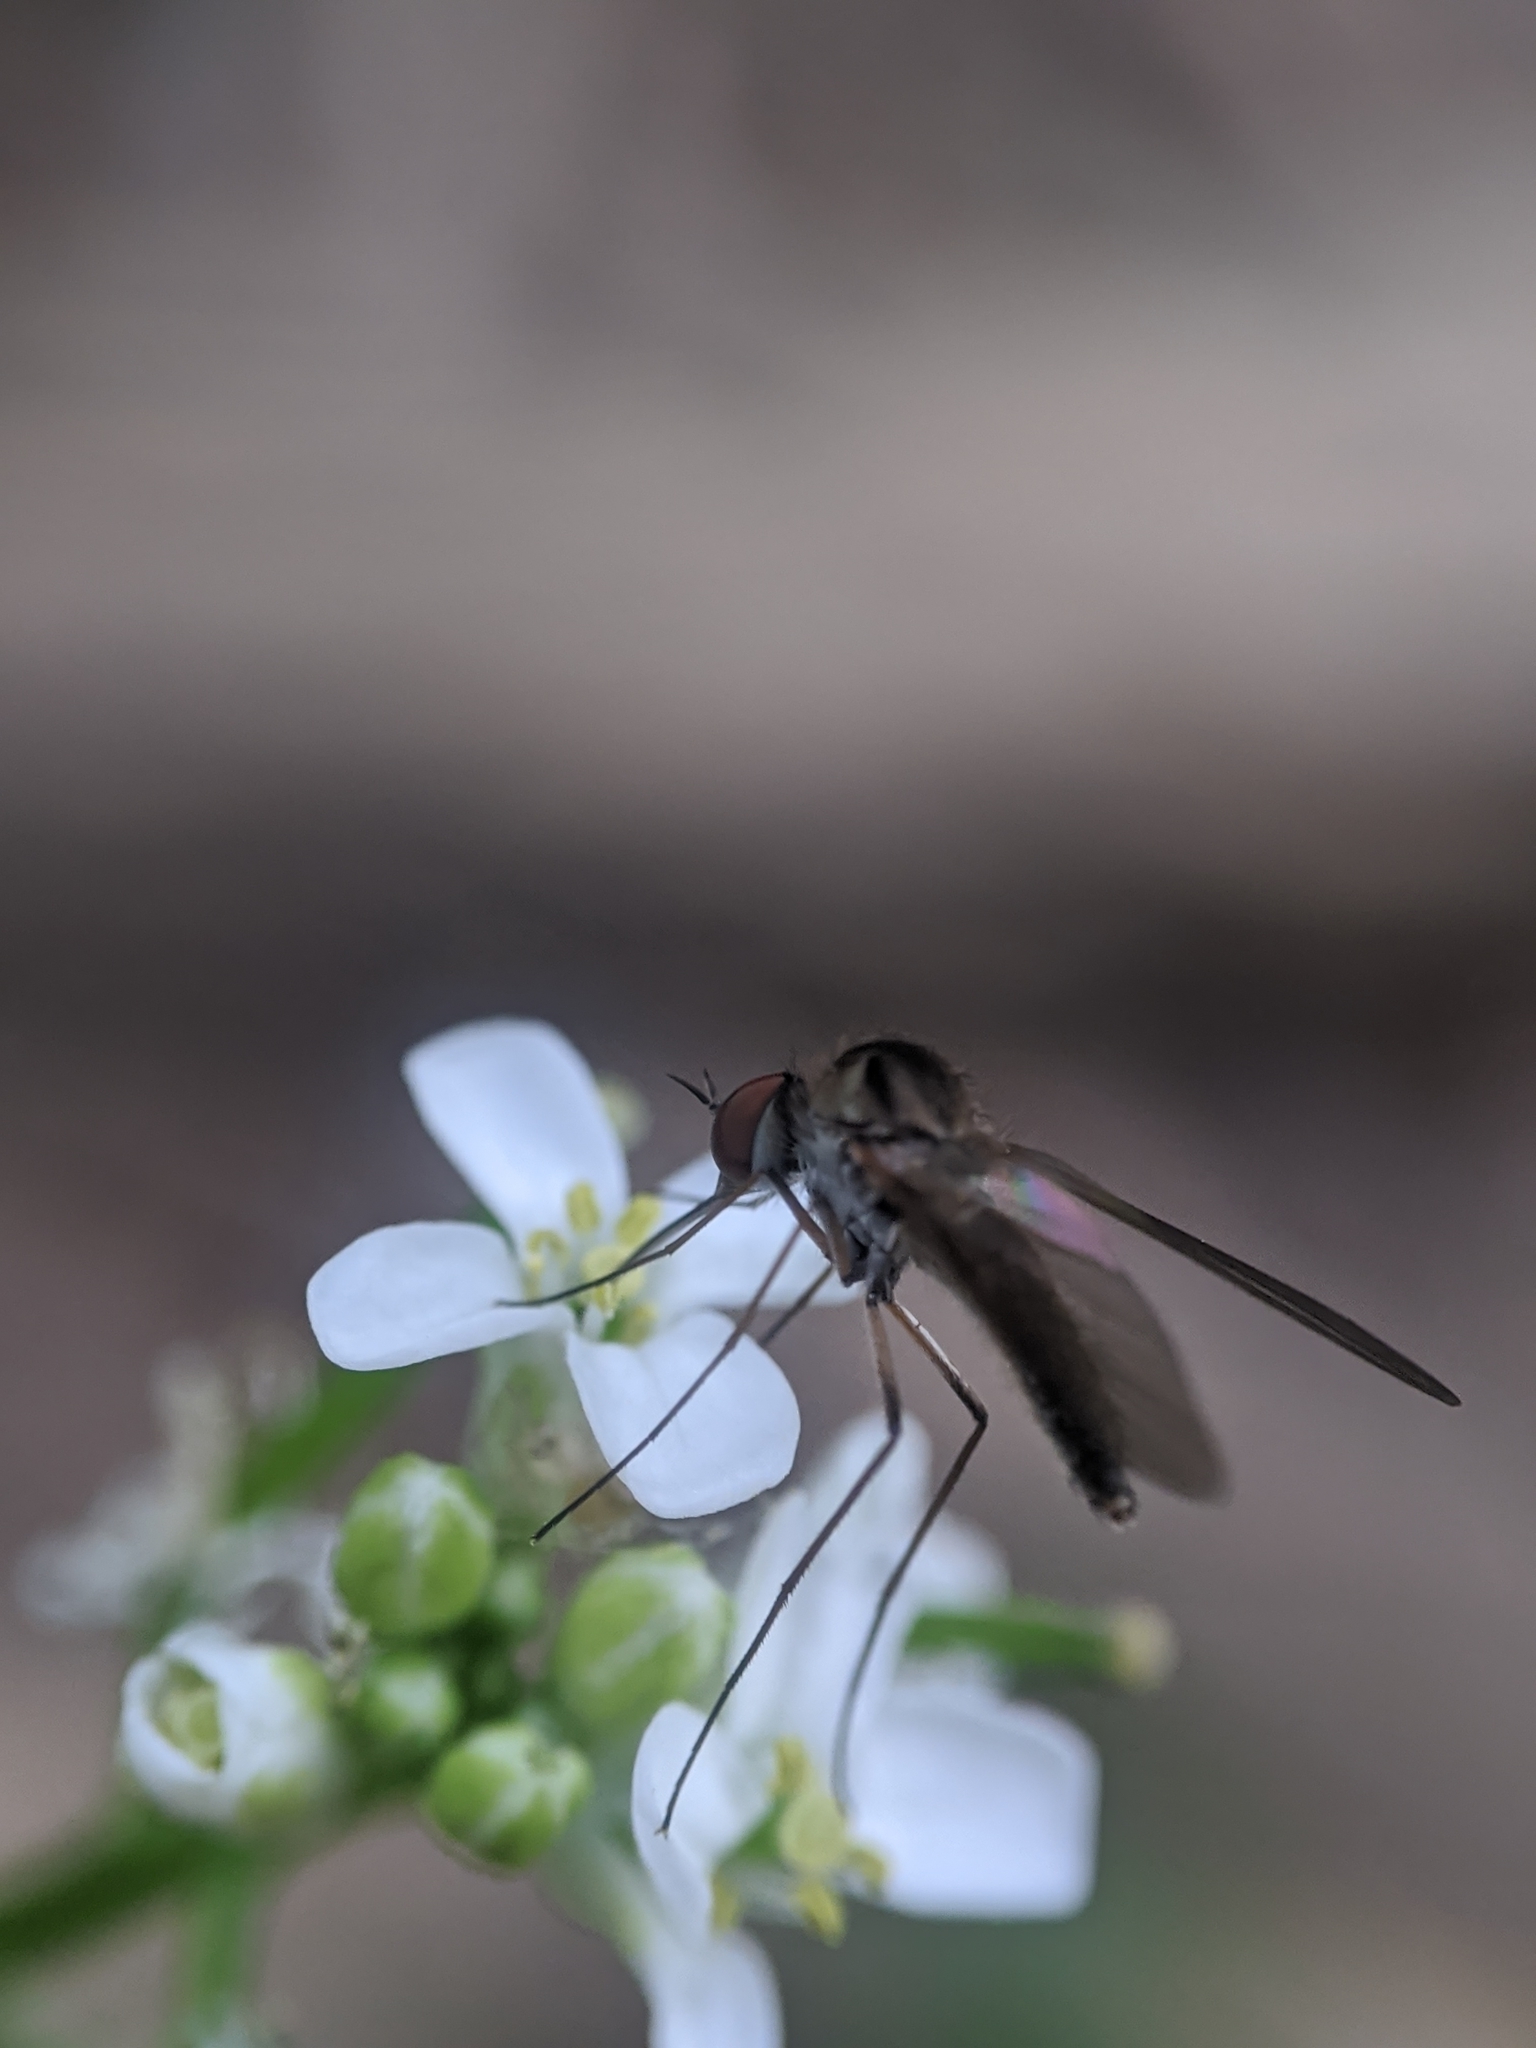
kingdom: Animalia
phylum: Arthropoda
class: Insecta
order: Diptera
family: Bombyliidae
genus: Geron
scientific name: Geron
